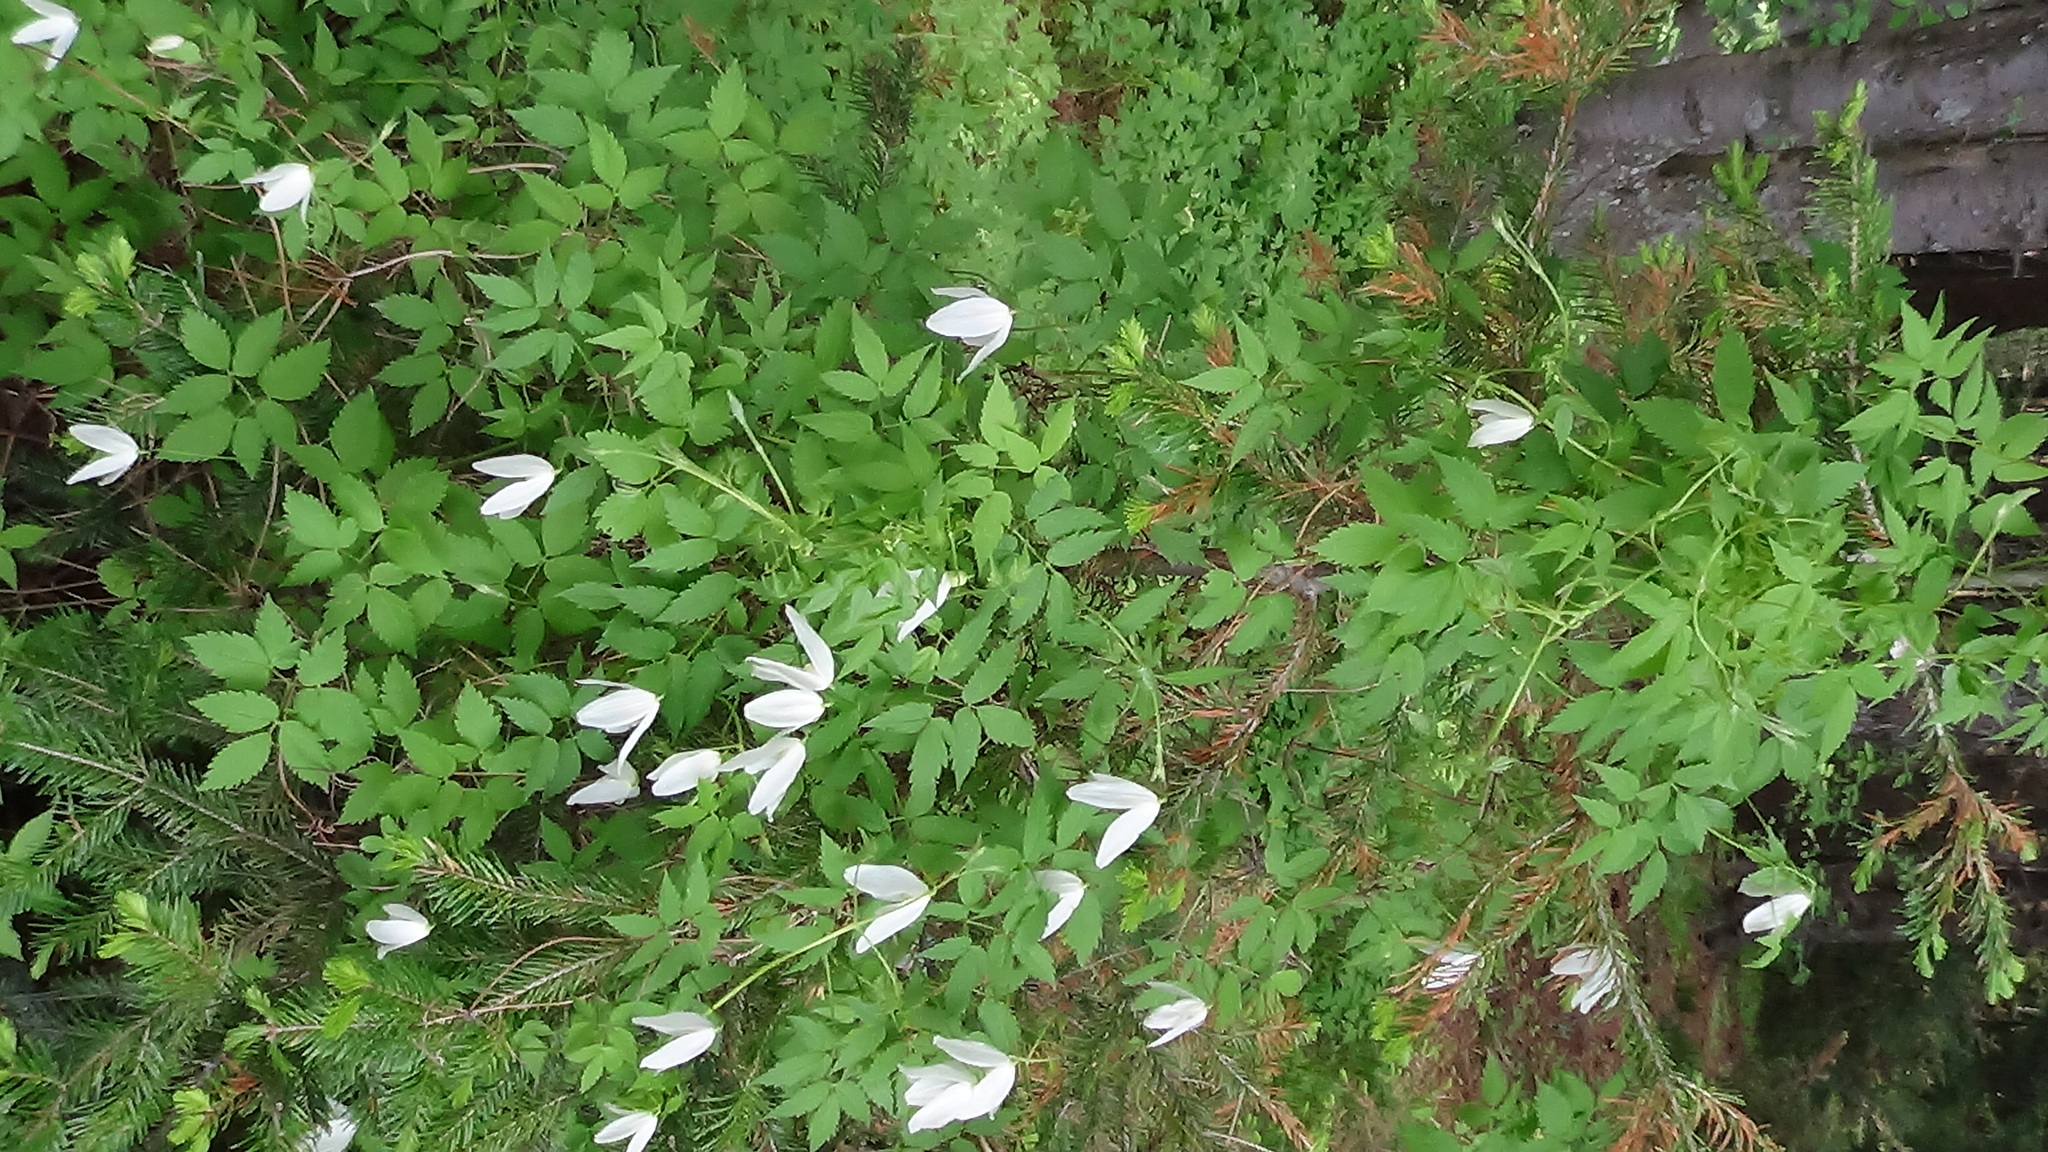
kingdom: Plantae
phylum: Tracheophyta
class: Magnoliopsida
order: Ranunculales
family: Ranunculaceae
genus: Clematis
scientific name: Clematis sibirica
